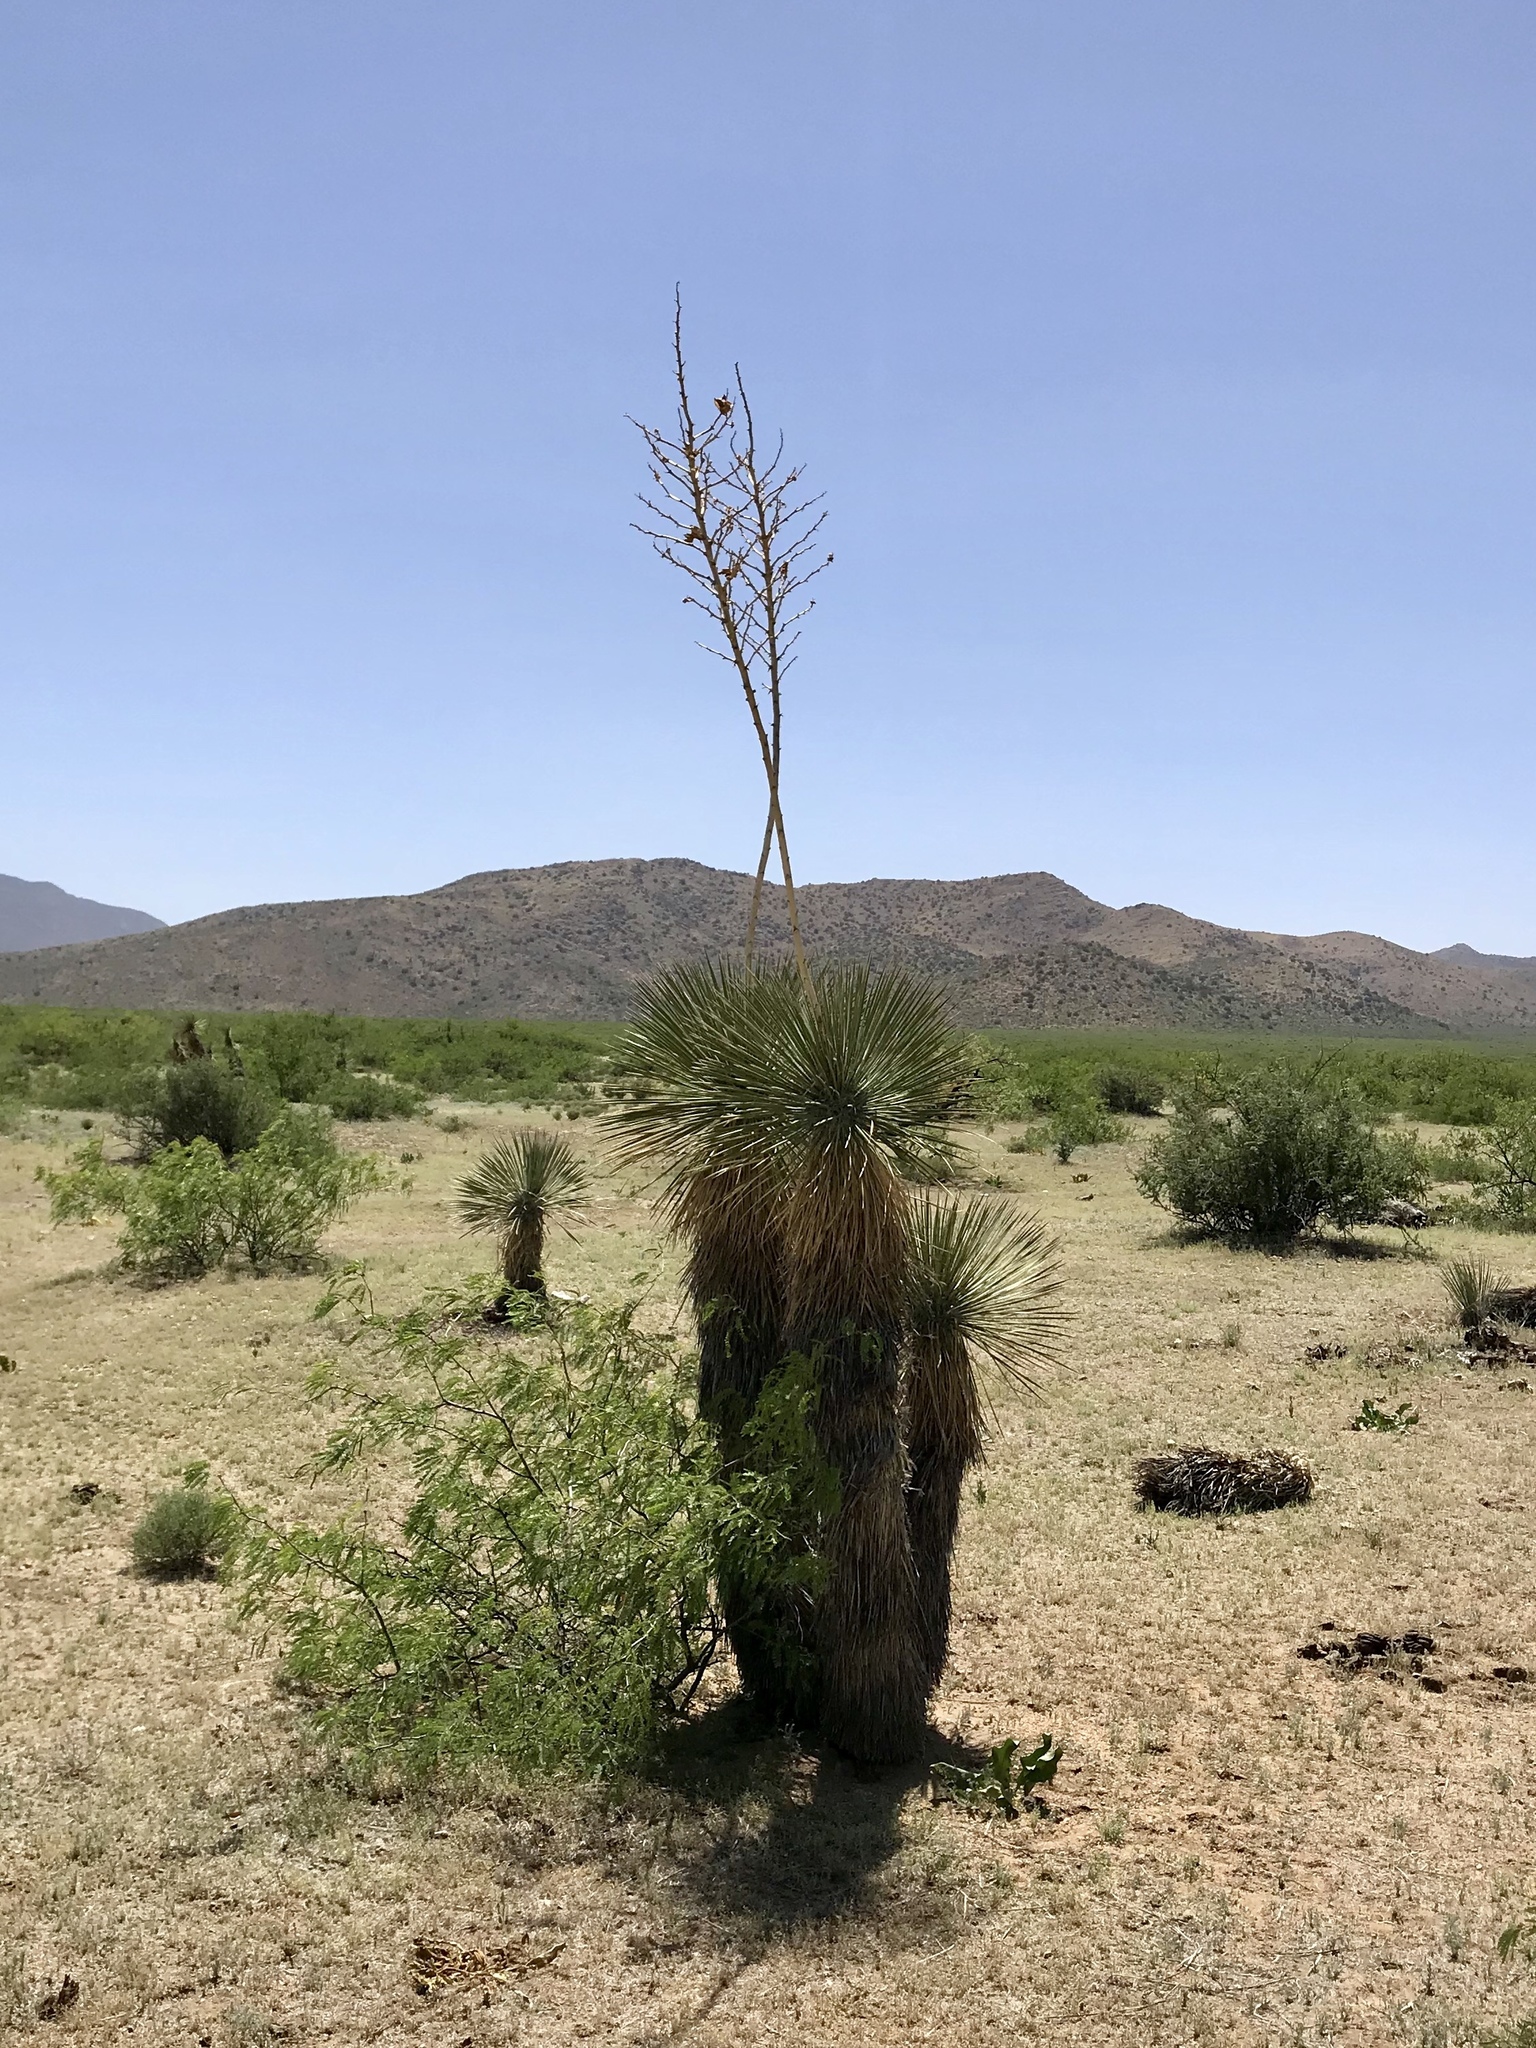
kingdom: Plantae
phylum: Tracheophyta
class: Liliopsida
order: Asparagales
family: Asparagaceae
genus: Yucca
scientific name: Yucca elata
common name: Palmella
